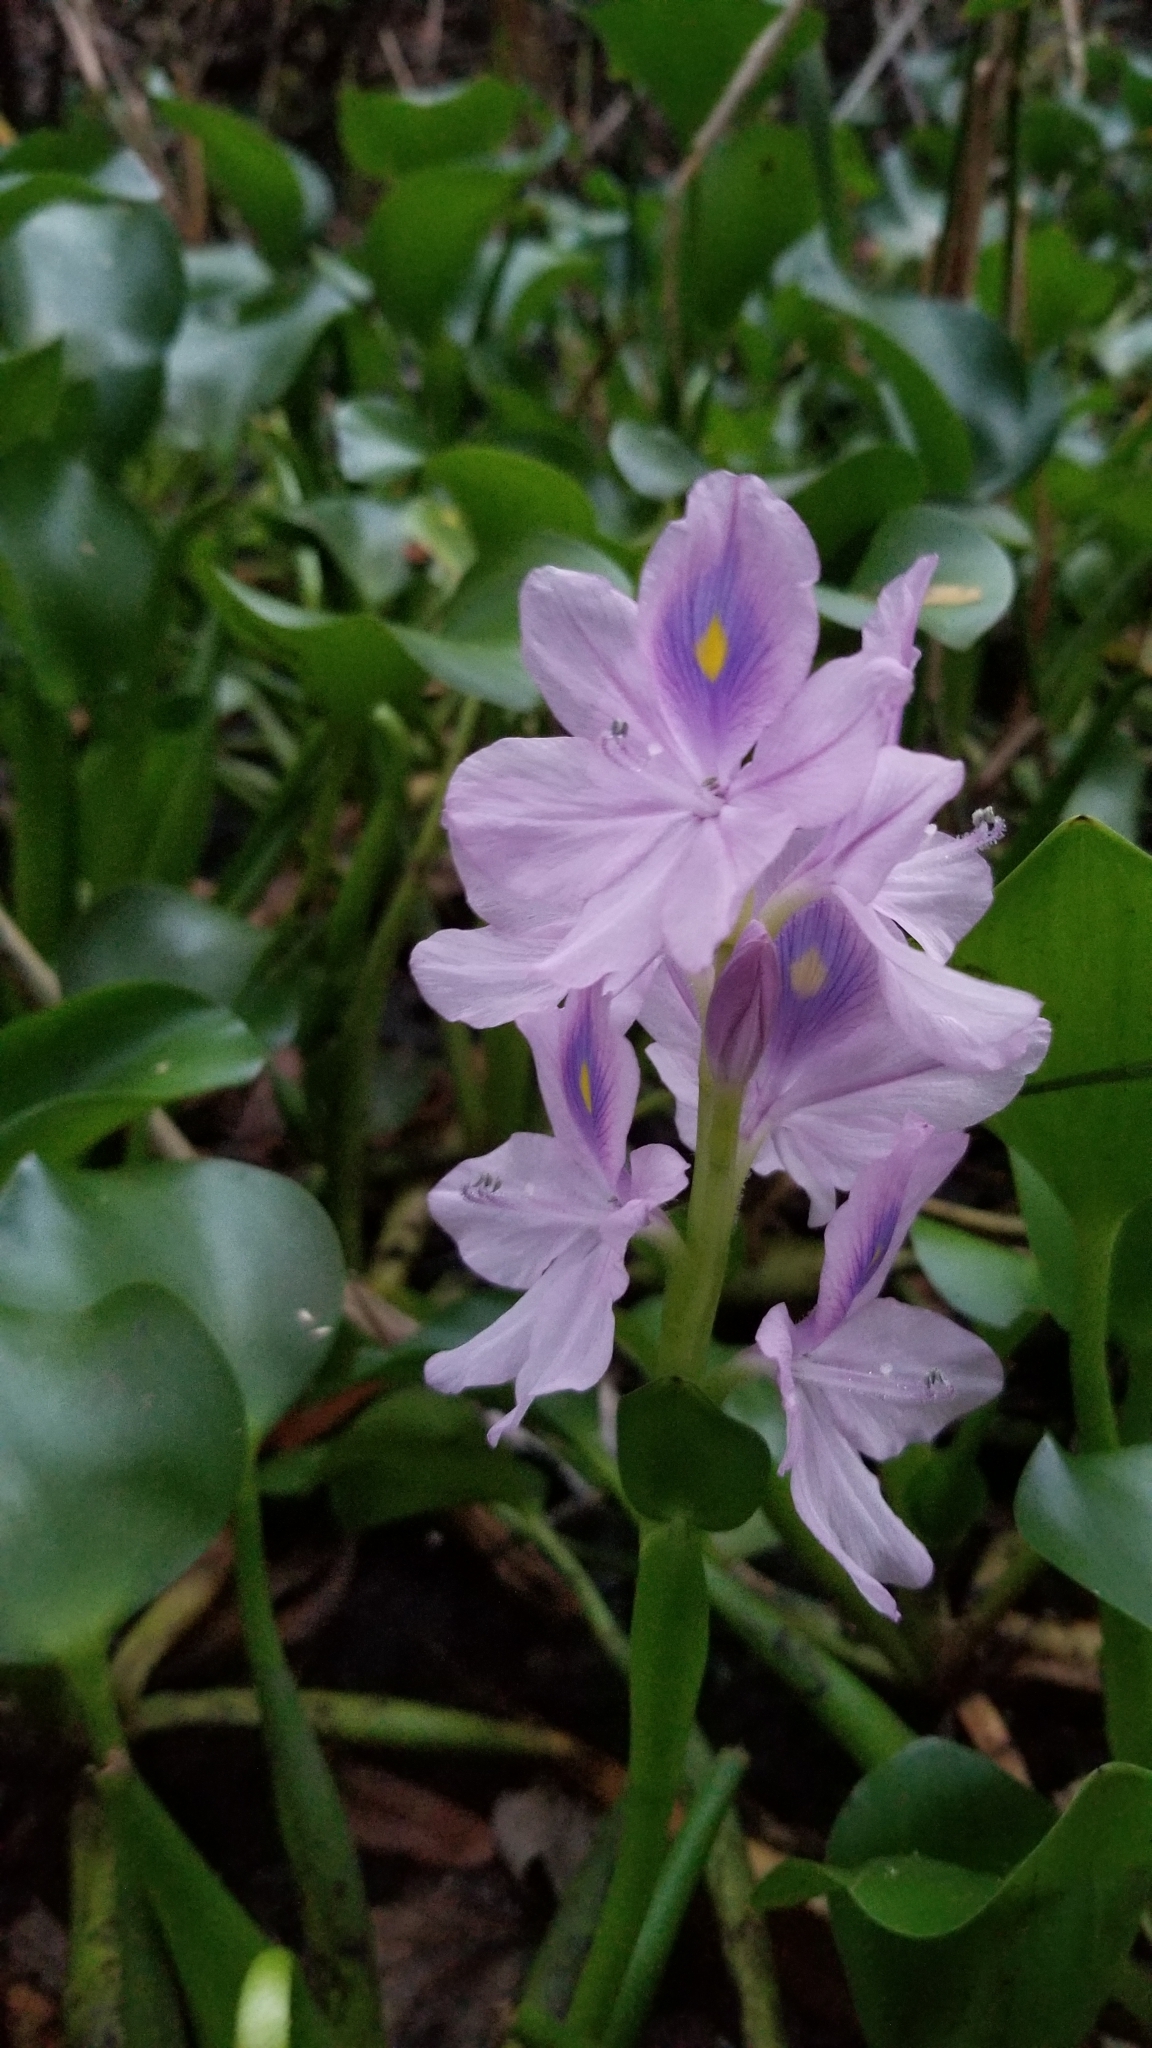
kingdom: Plantae
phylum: Tracheophyta
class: Liliopsida
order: Commelinales
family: Pontederiaceae
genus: Pontederia
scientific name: Pontederia crassipes
